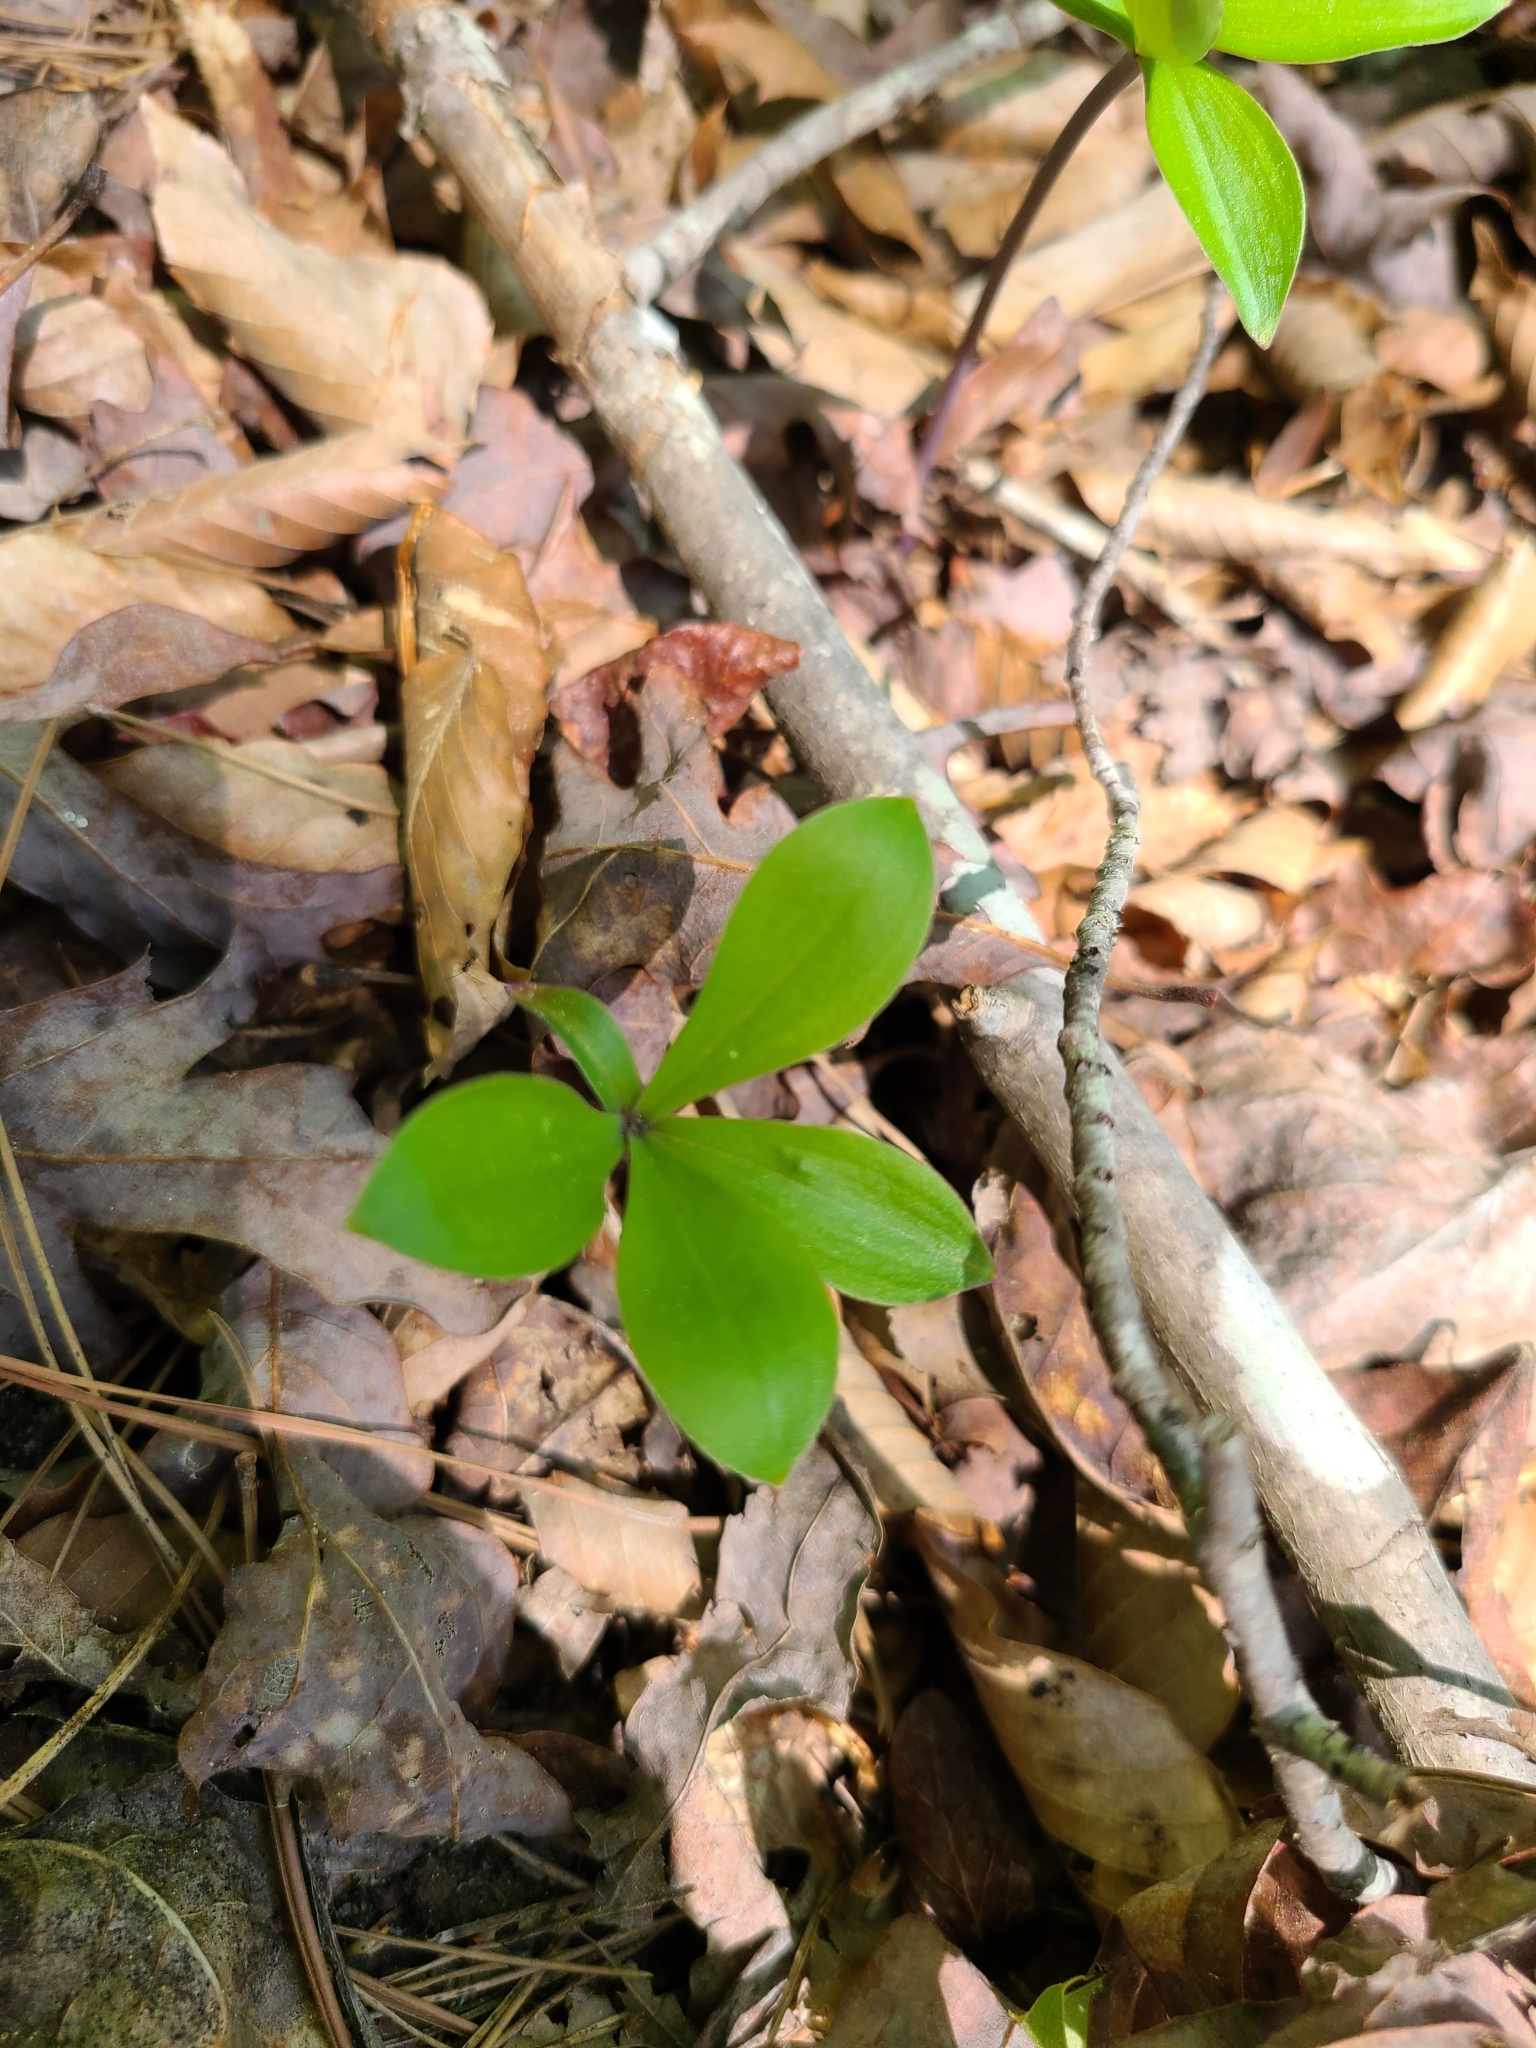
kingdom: Plantae
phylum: Tracheophyta
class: Liliopsida
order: Asparagales
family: Orchidaceae
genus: Isotria
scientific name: Isotria verticillata
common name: Large whorled pogonia
